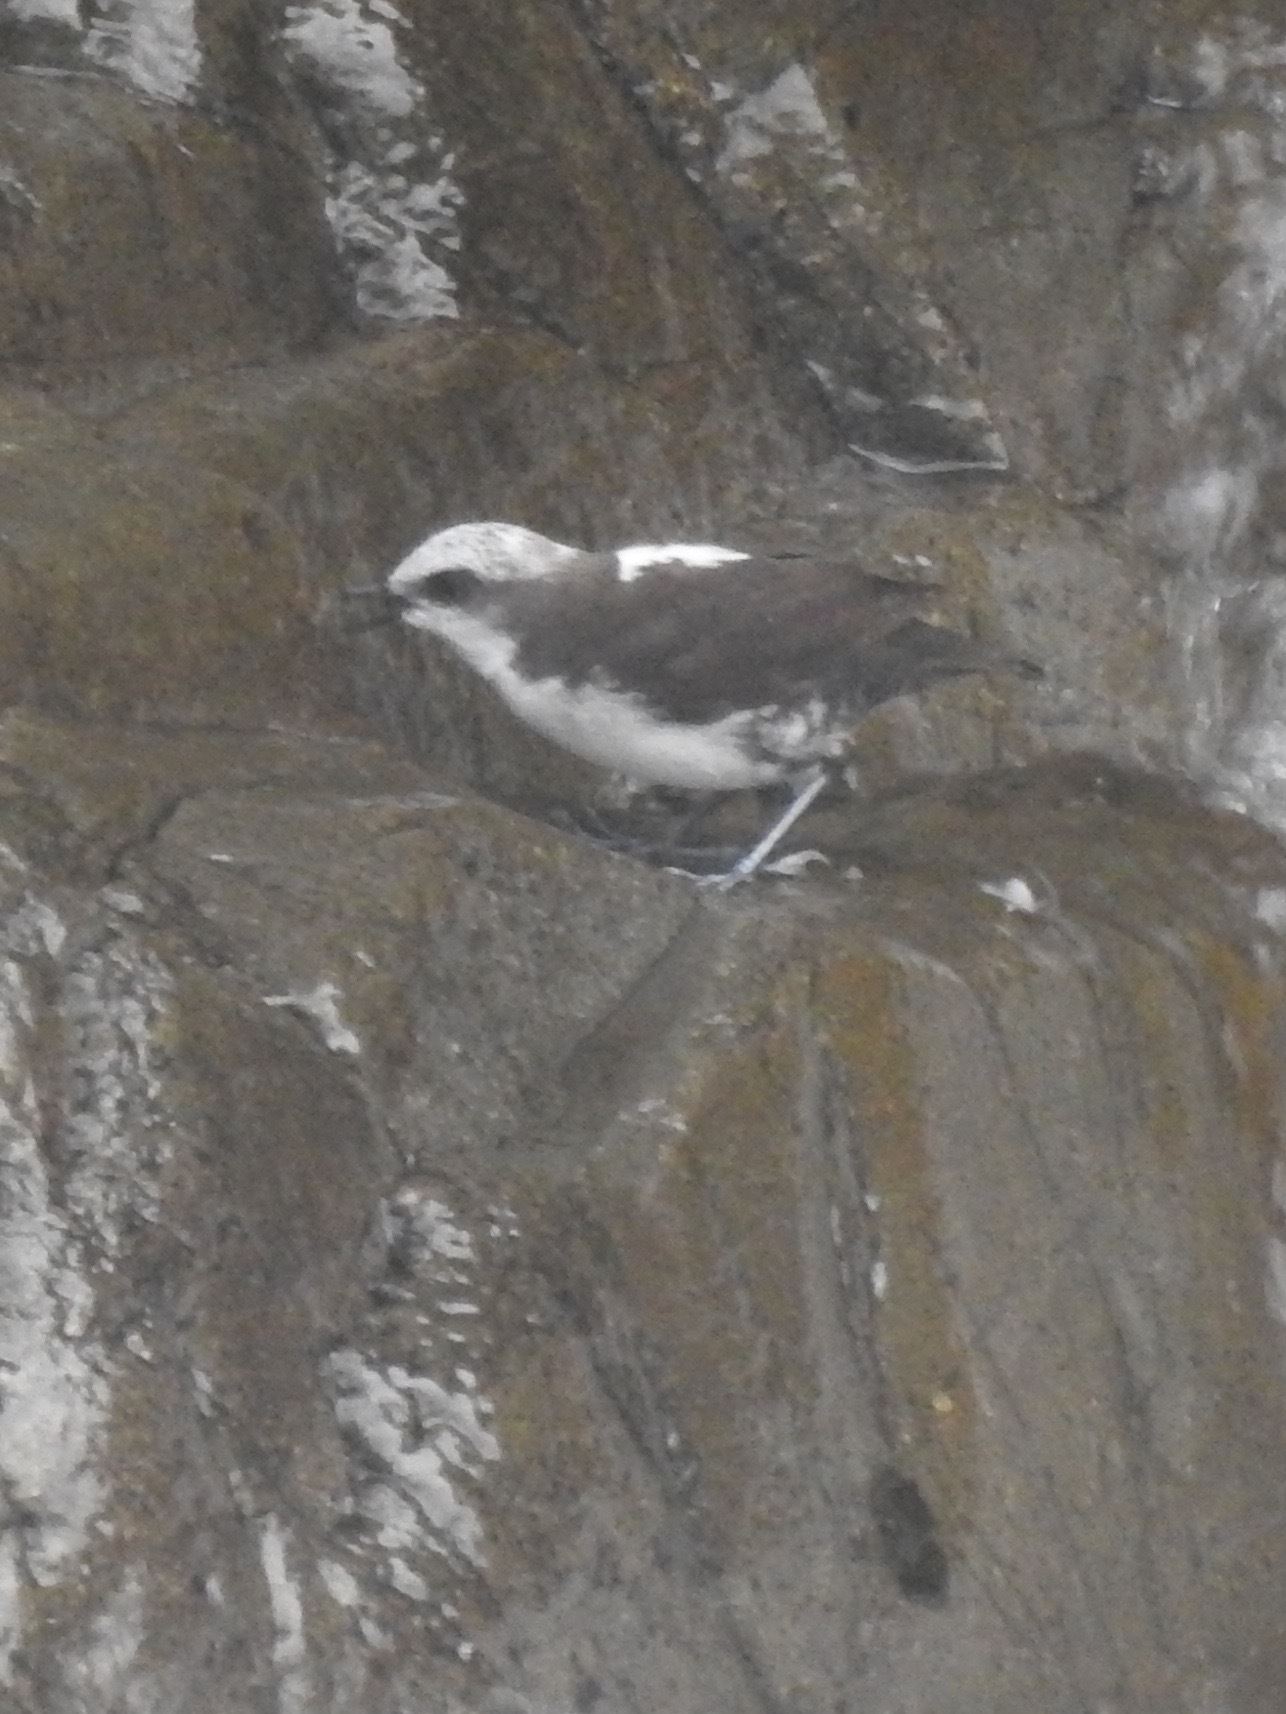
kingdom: Animalia
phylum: Chordata
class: Aves
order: Passeriformes
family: Cinclidae
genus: Cinclus
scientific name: Cinclus leucocephalus
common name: White-capped dipper
